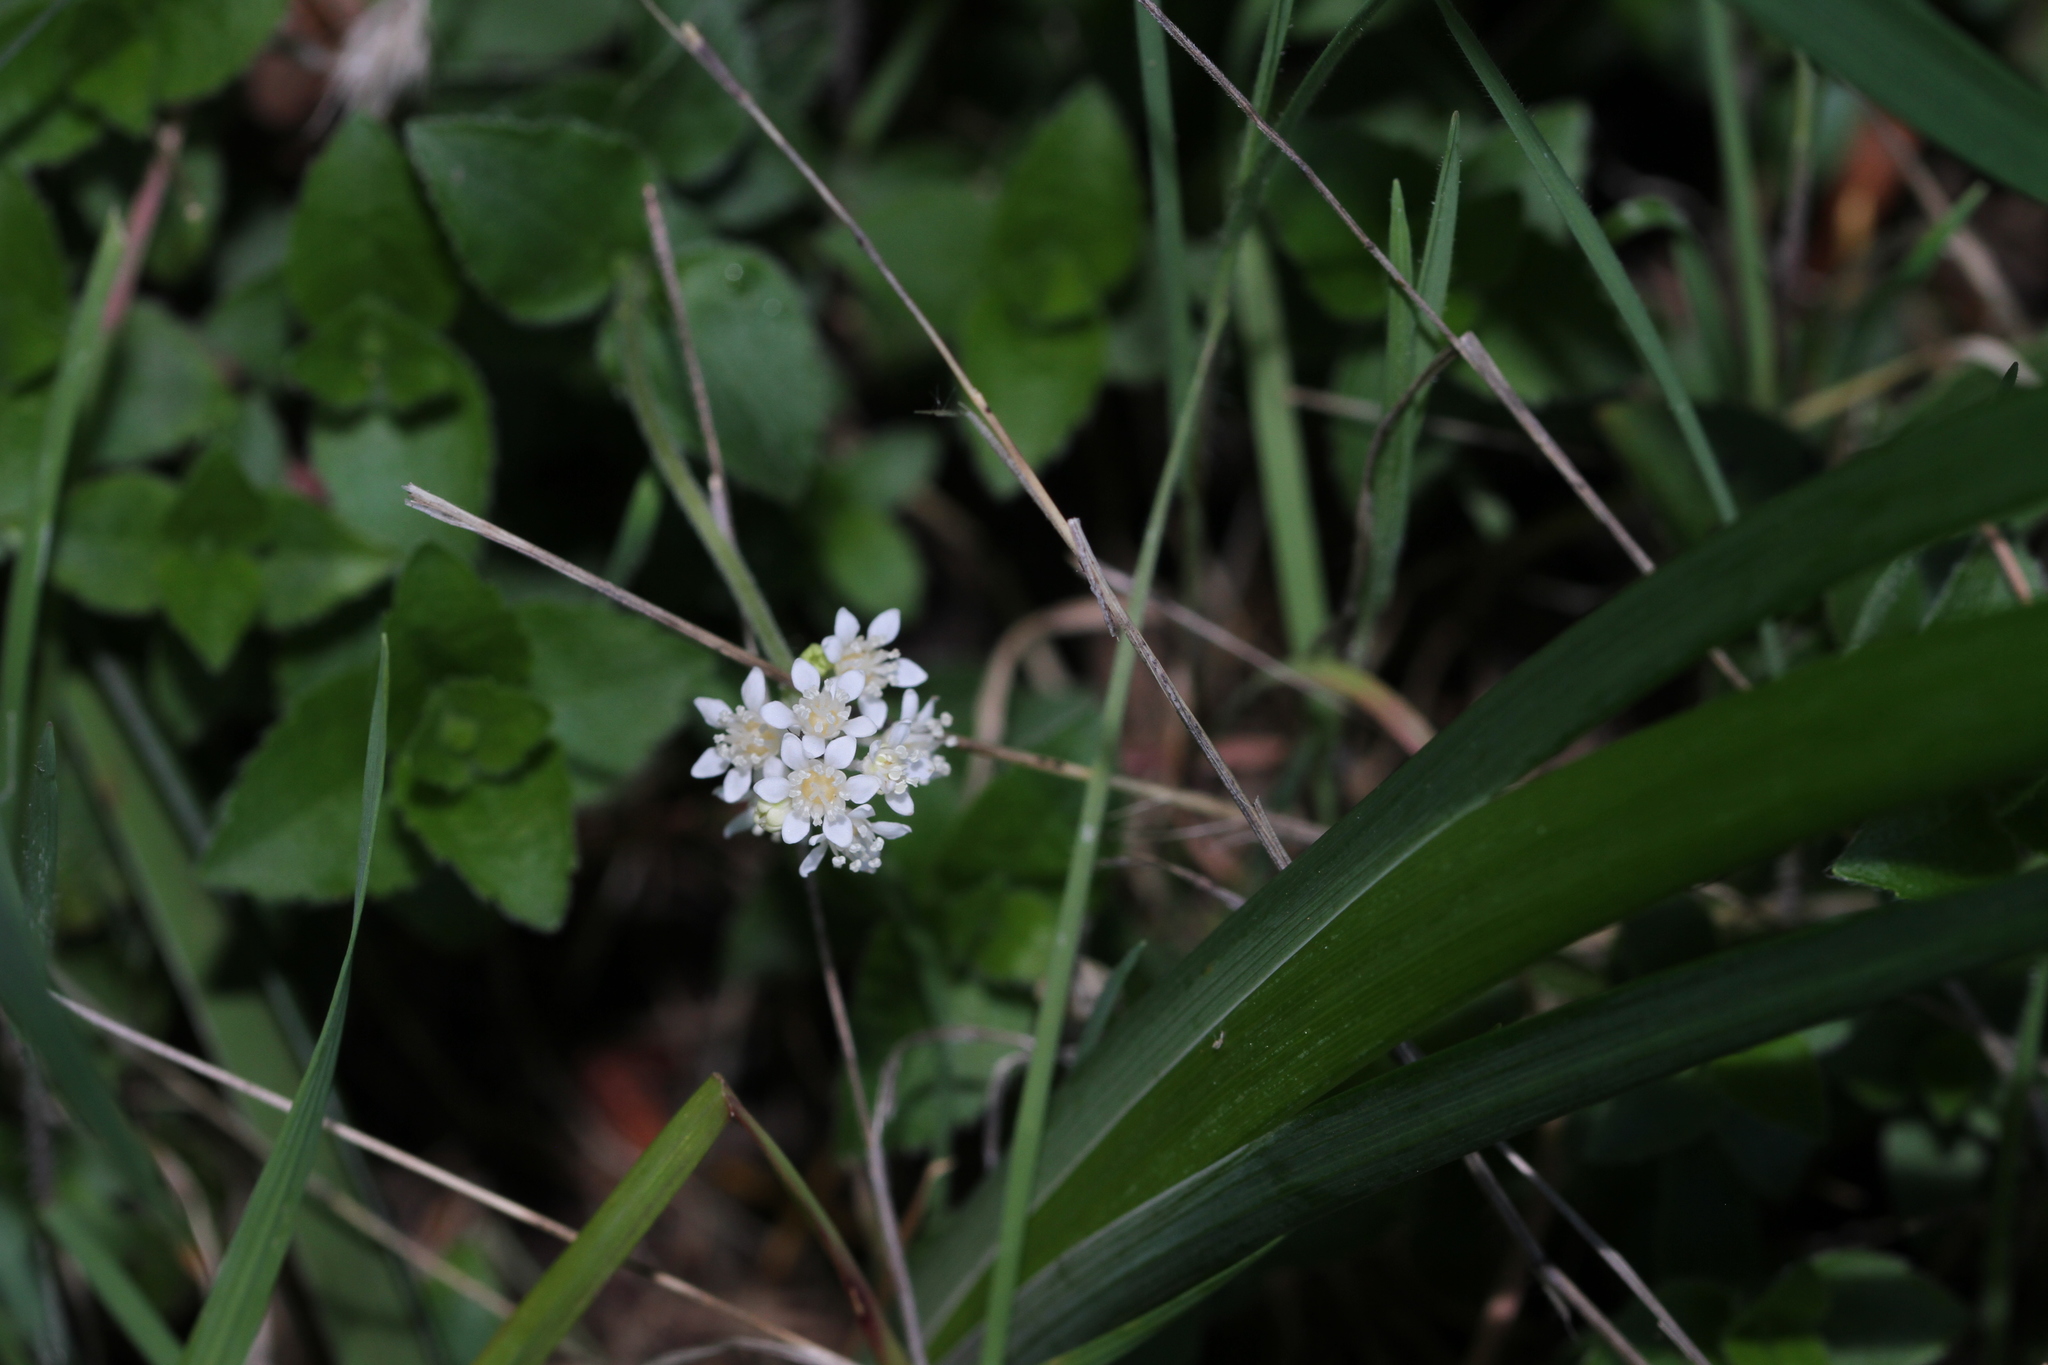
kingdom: Plantae
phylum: Tracheophyta
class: Magnoliopsida
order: Cornales
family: Hydrangeaceae
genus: Whipplea
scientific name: Whipplea modesta
